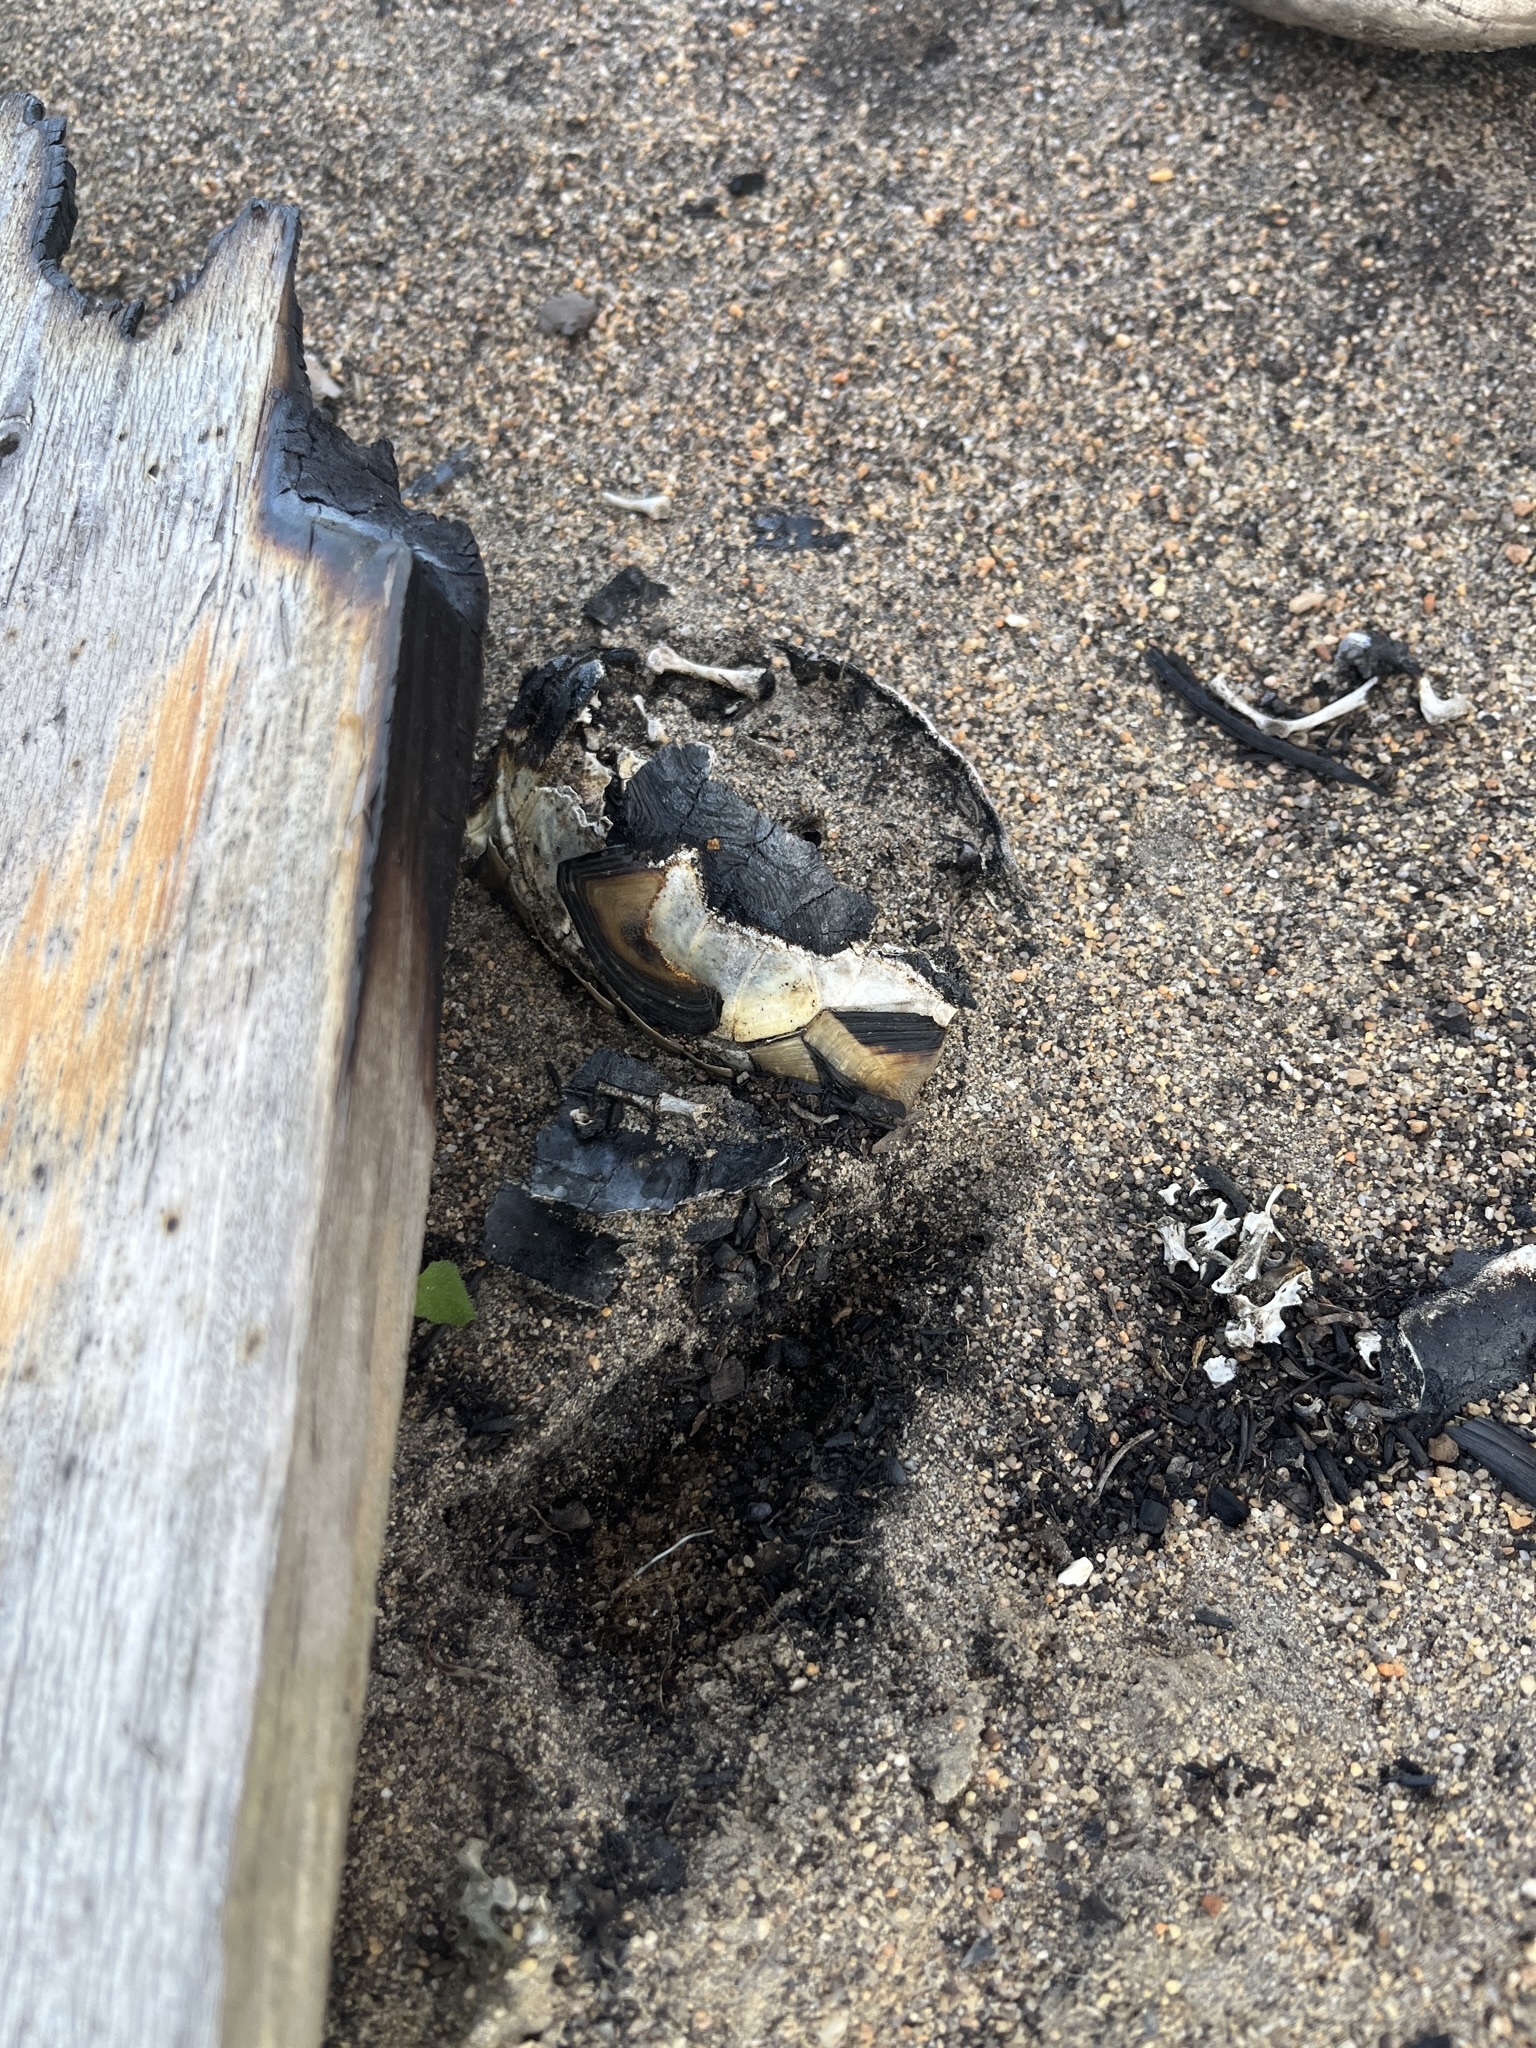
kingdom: Animalia
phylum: Chordata
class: Testudines
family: Testudinidae
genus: Chersina
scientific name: Chersina angulata
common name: South african bowsprit tortoise
